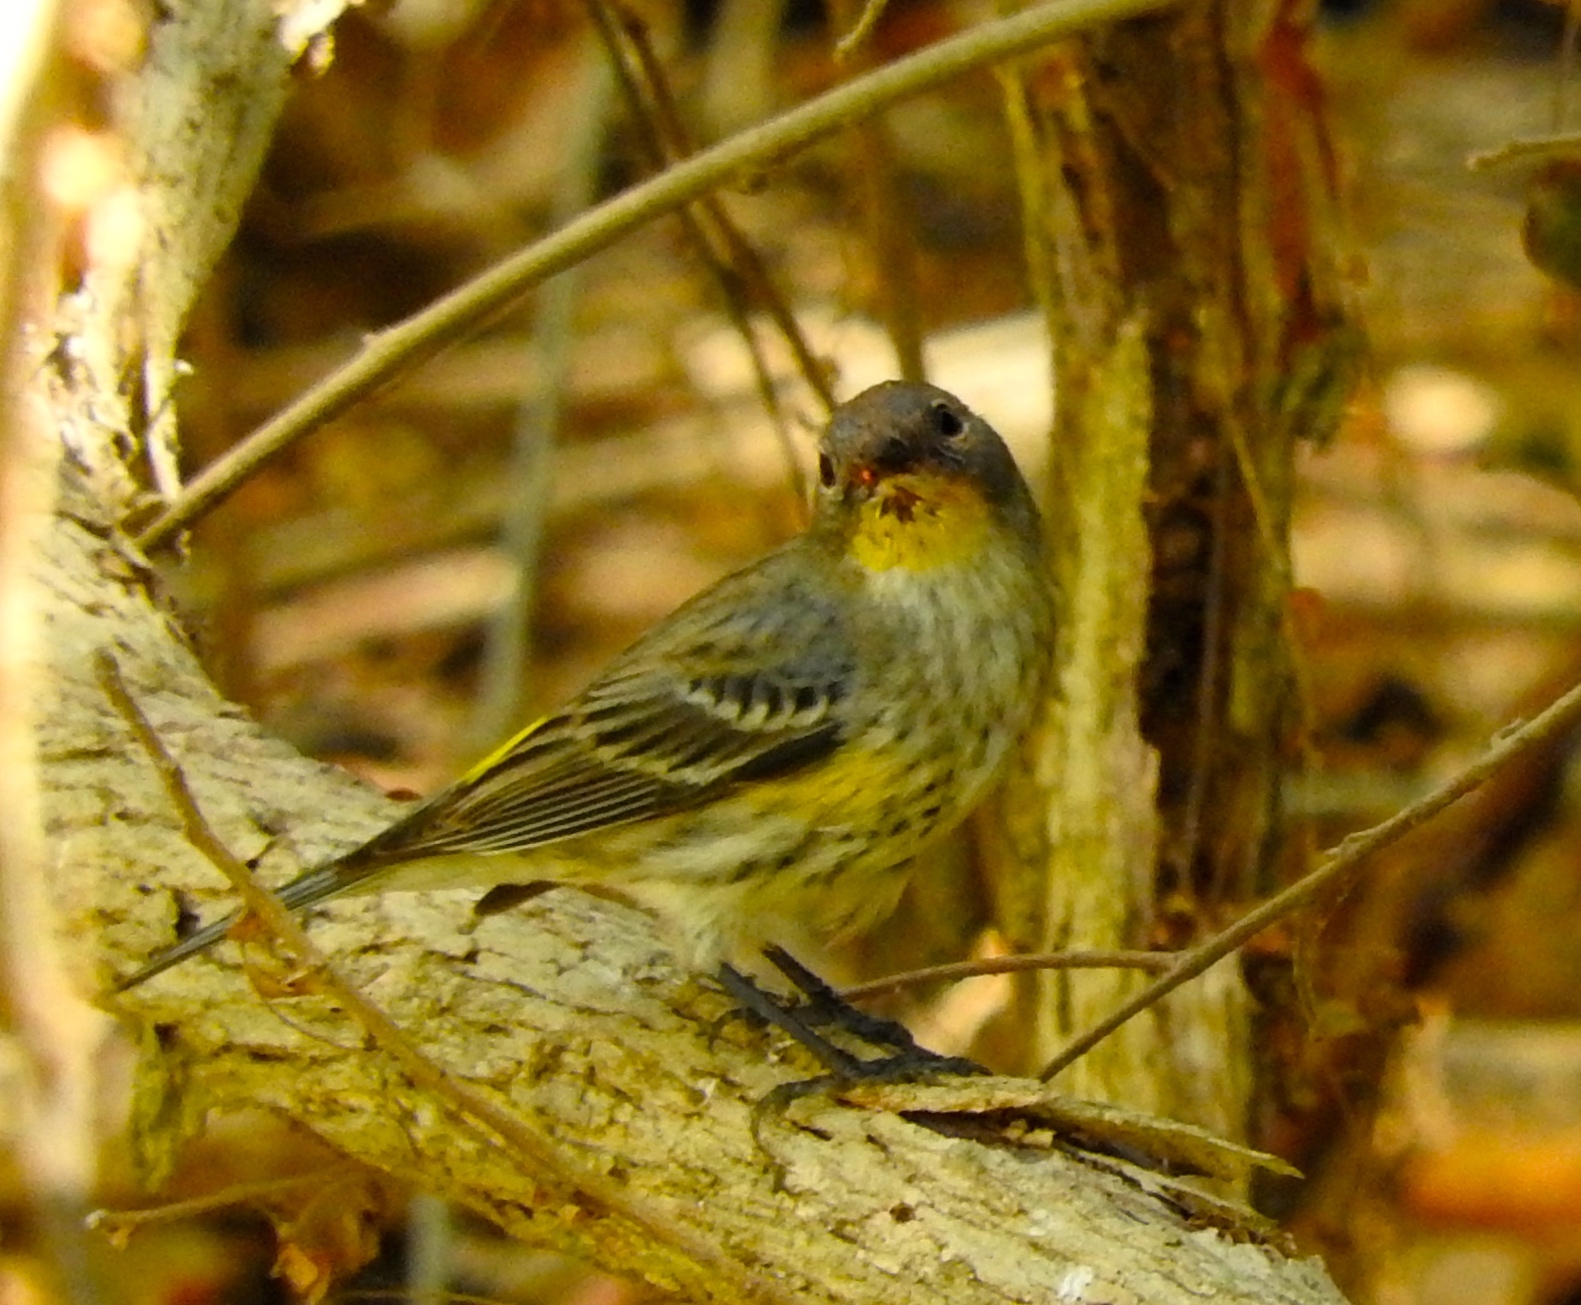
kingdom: Animalia
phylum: Chordata
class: Aves
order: Passeriformes
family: Parulidae
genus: Setophaga
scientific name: Setophaga auduboni
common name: Audubon's warbler
